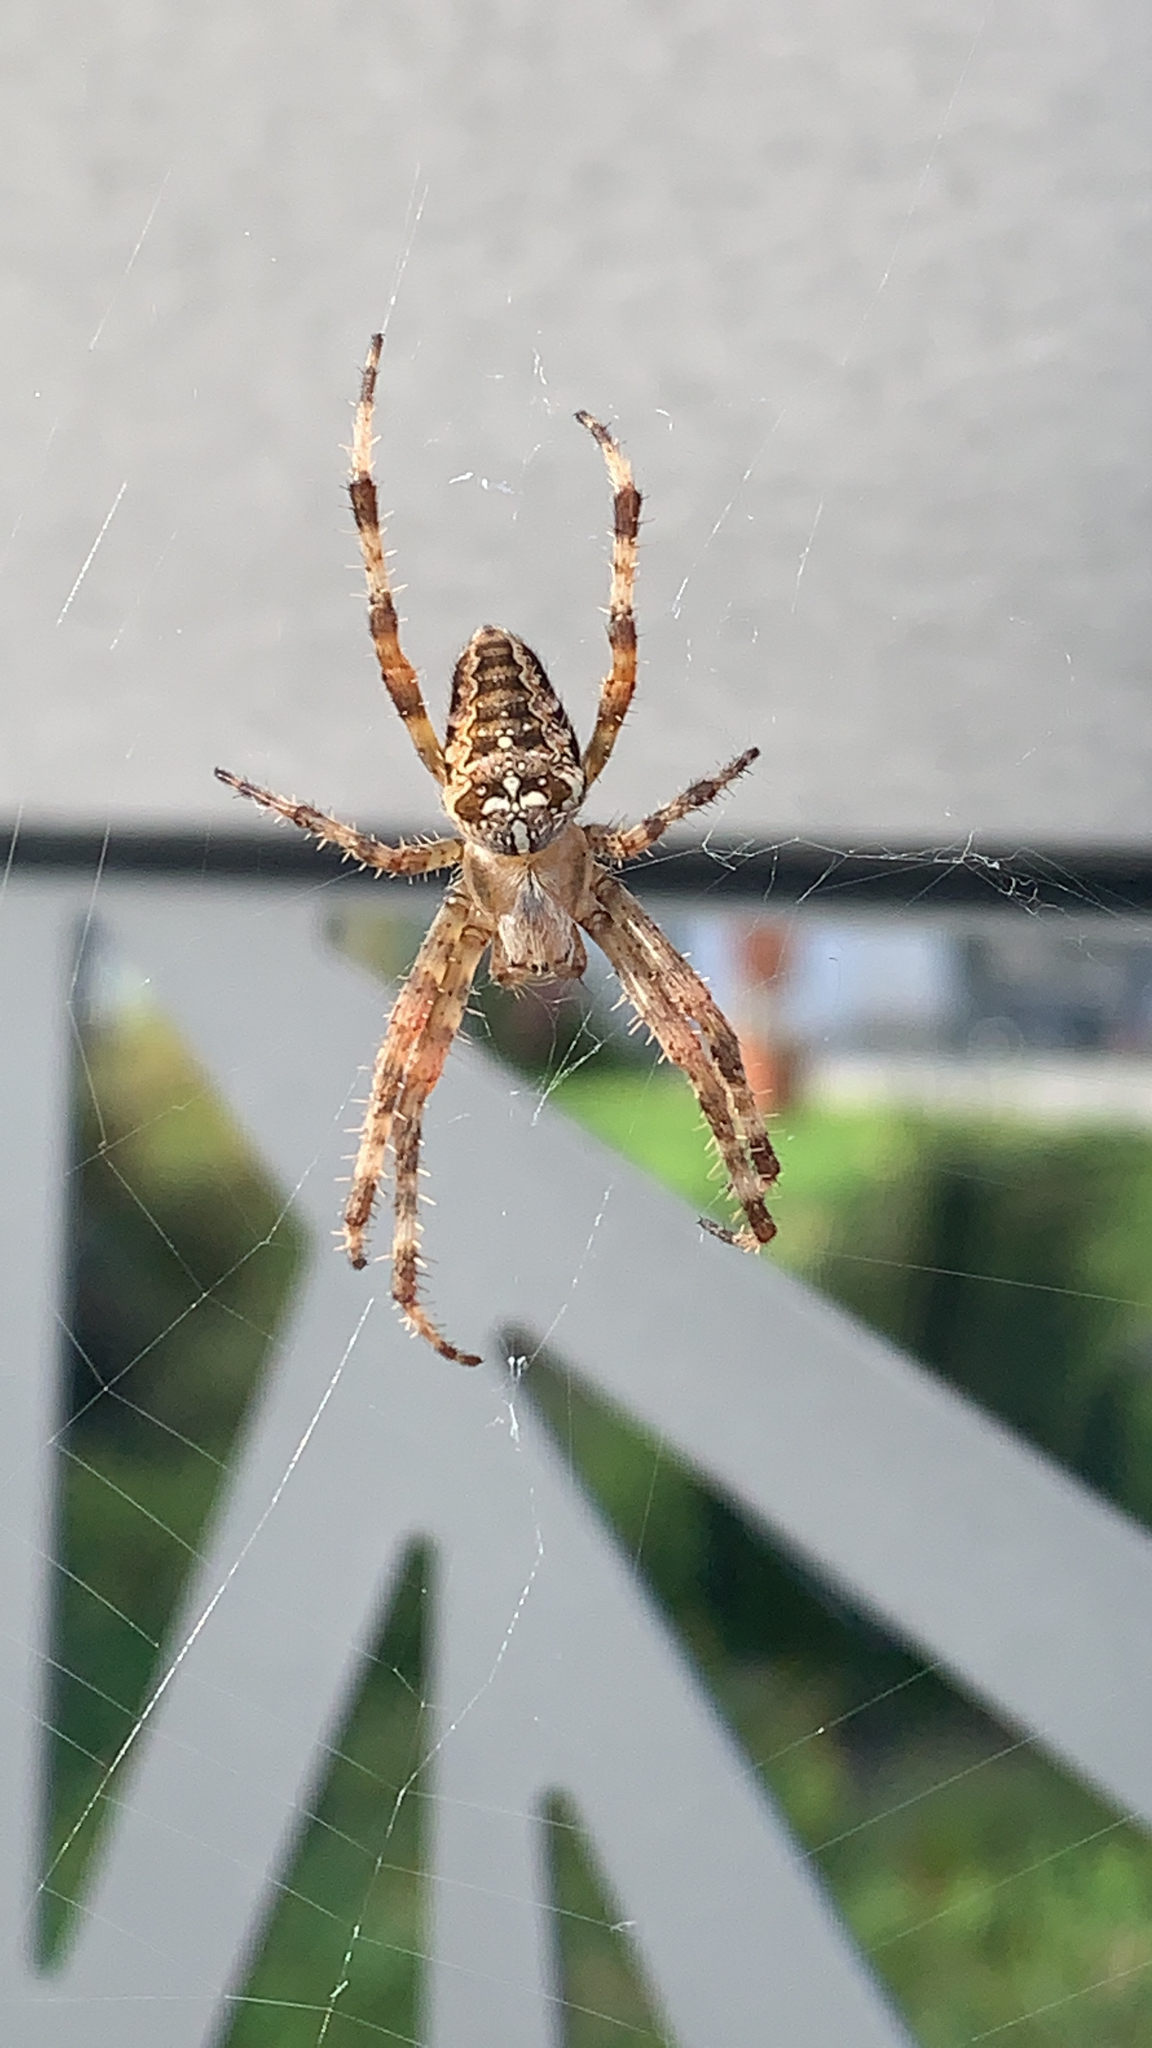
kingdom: Animalia
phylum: Arthropoda
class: Arachnida
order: Araneae
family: Araneidae
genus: Araneus
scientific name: Araneus diadematus
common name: Cross orbweaver
